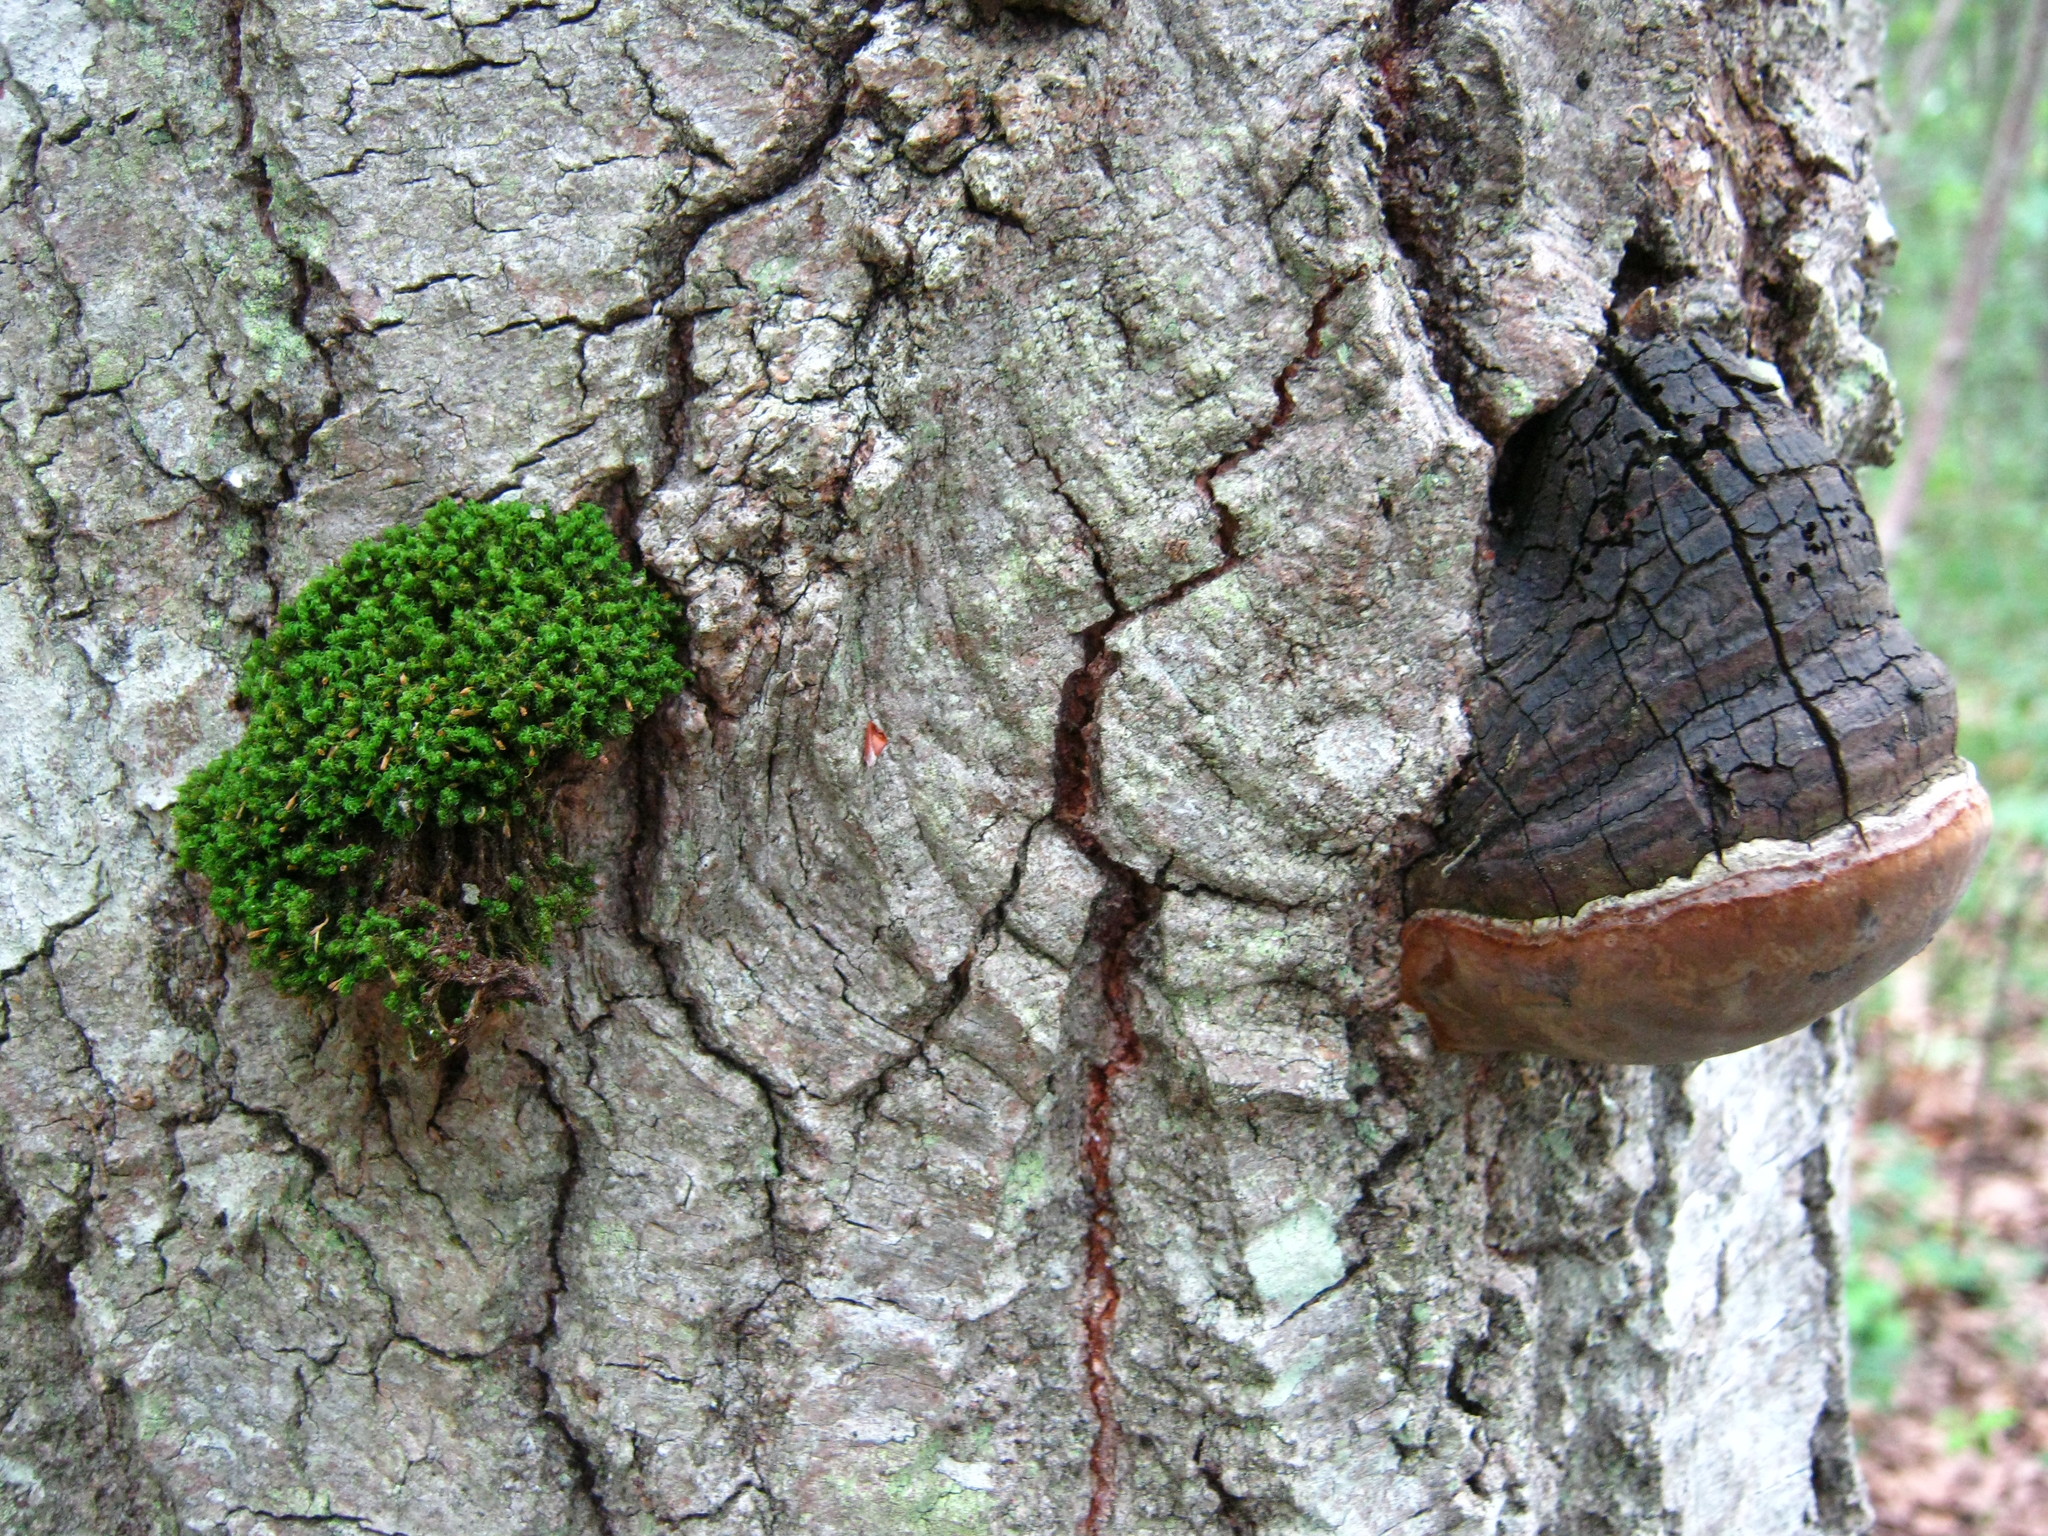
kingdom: Fungi
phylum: Basidiomycota
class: Agaricomycetes
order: Hymenochaetales
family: Hymenochaetaceae
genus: Phellinus
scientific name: Phellinus igniarius
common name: Willow bracket
